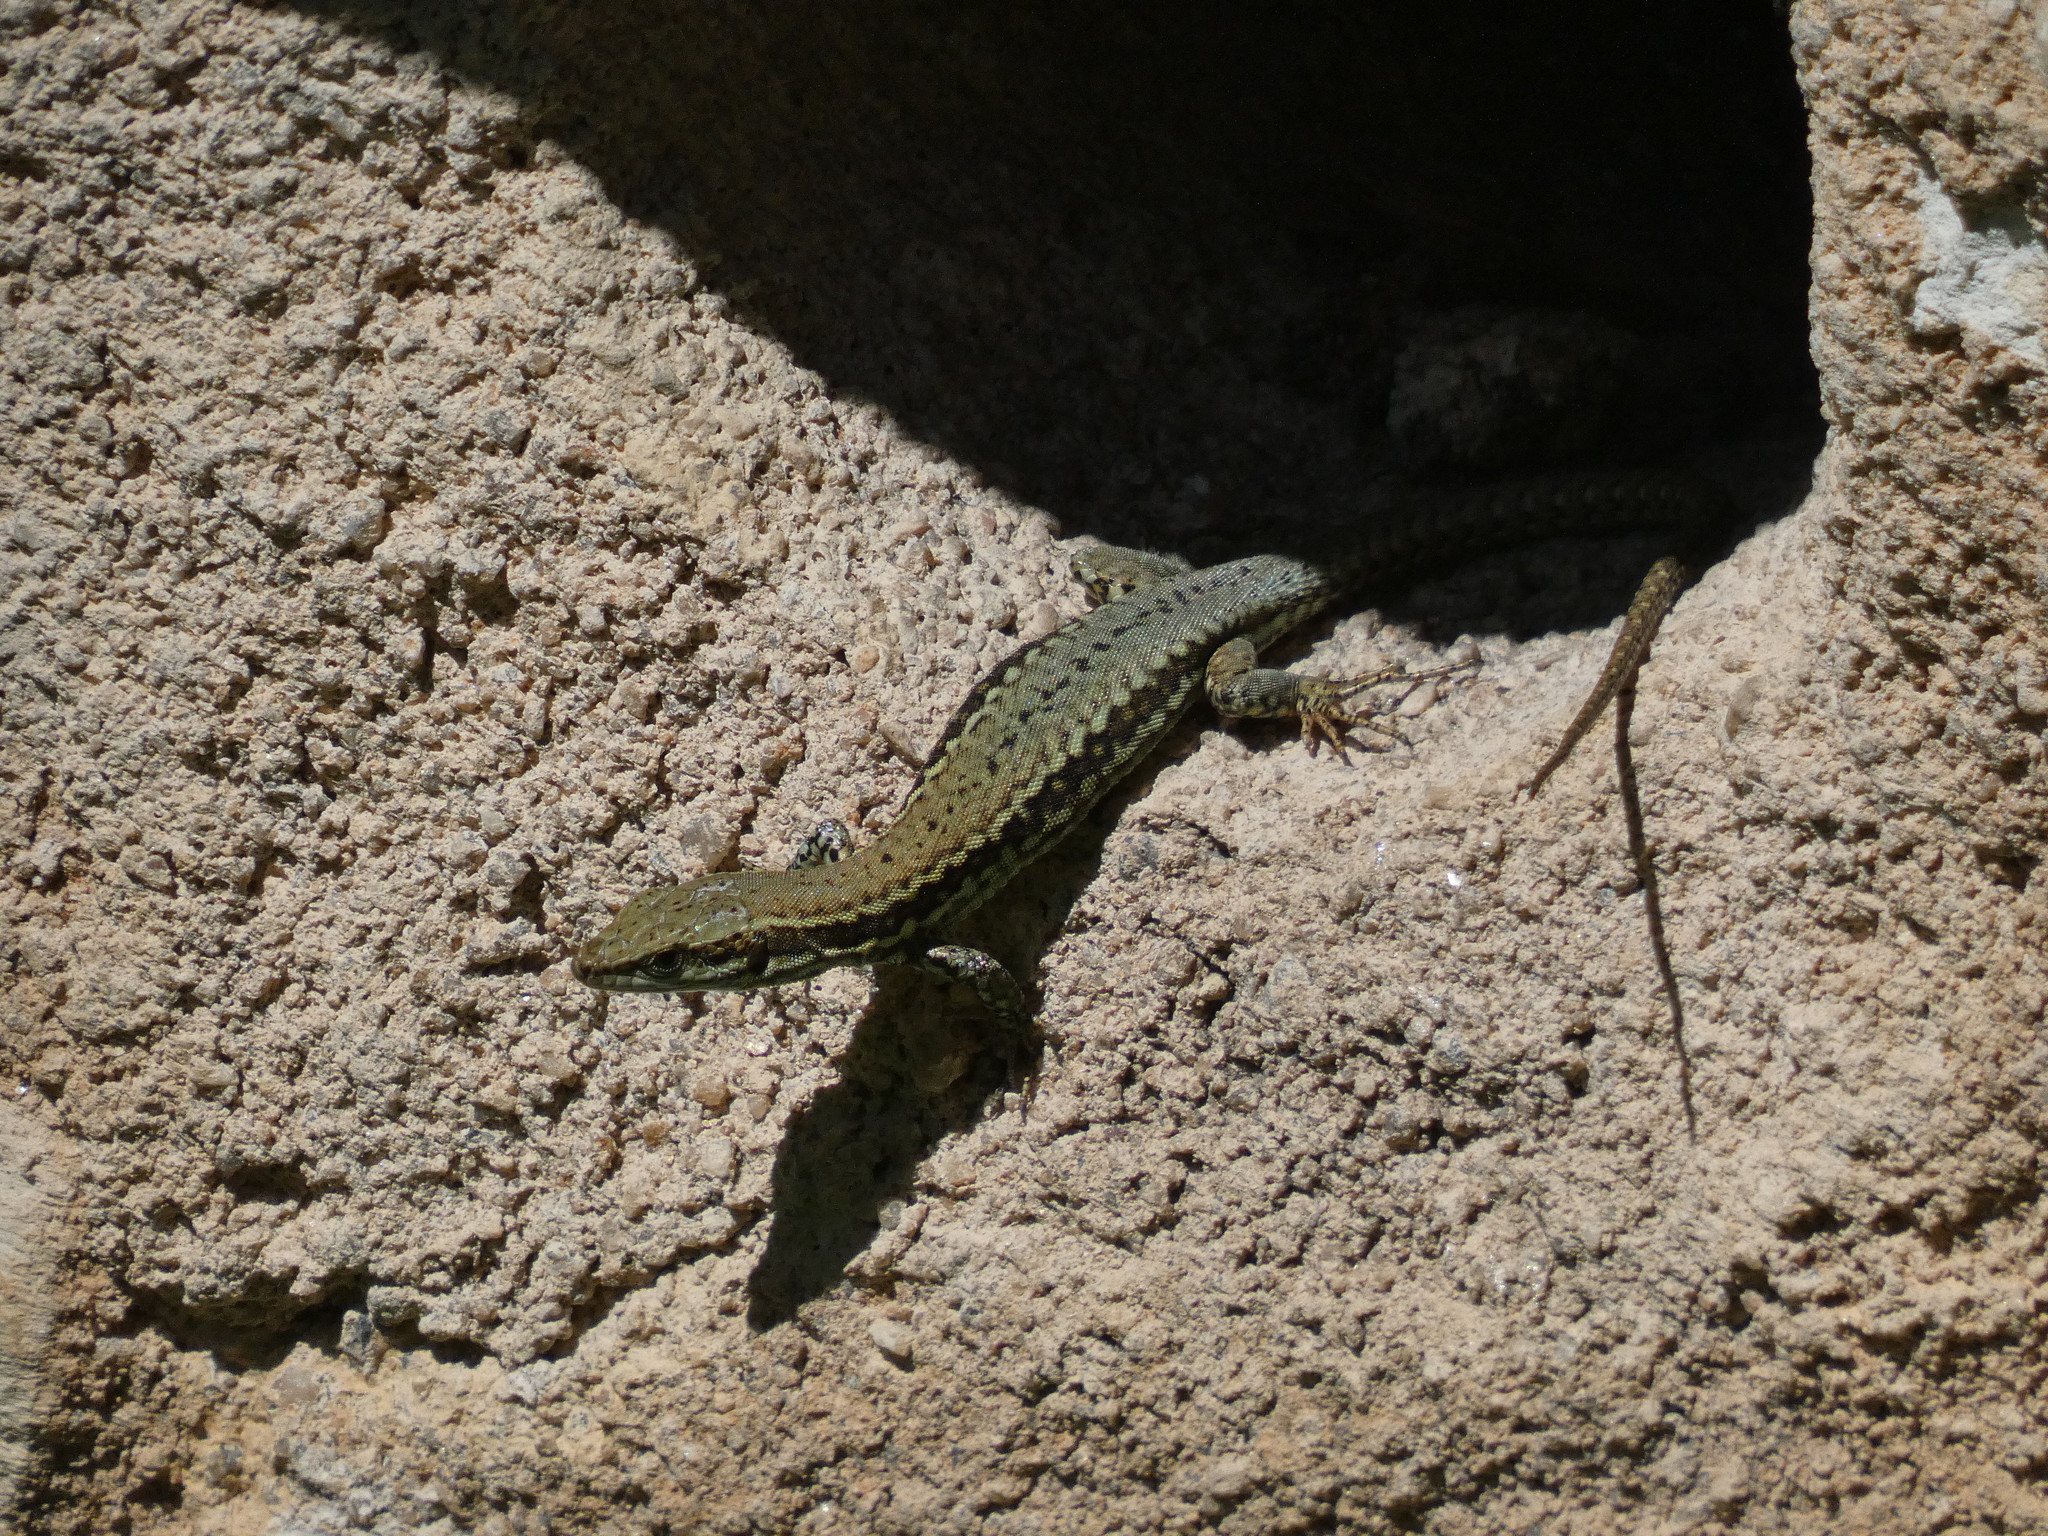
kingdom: Animalia
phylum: Chordata
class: Squamata
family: Lacertidae
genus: Podarcis
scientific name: Podarcis muralis
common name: Common wall lizard
